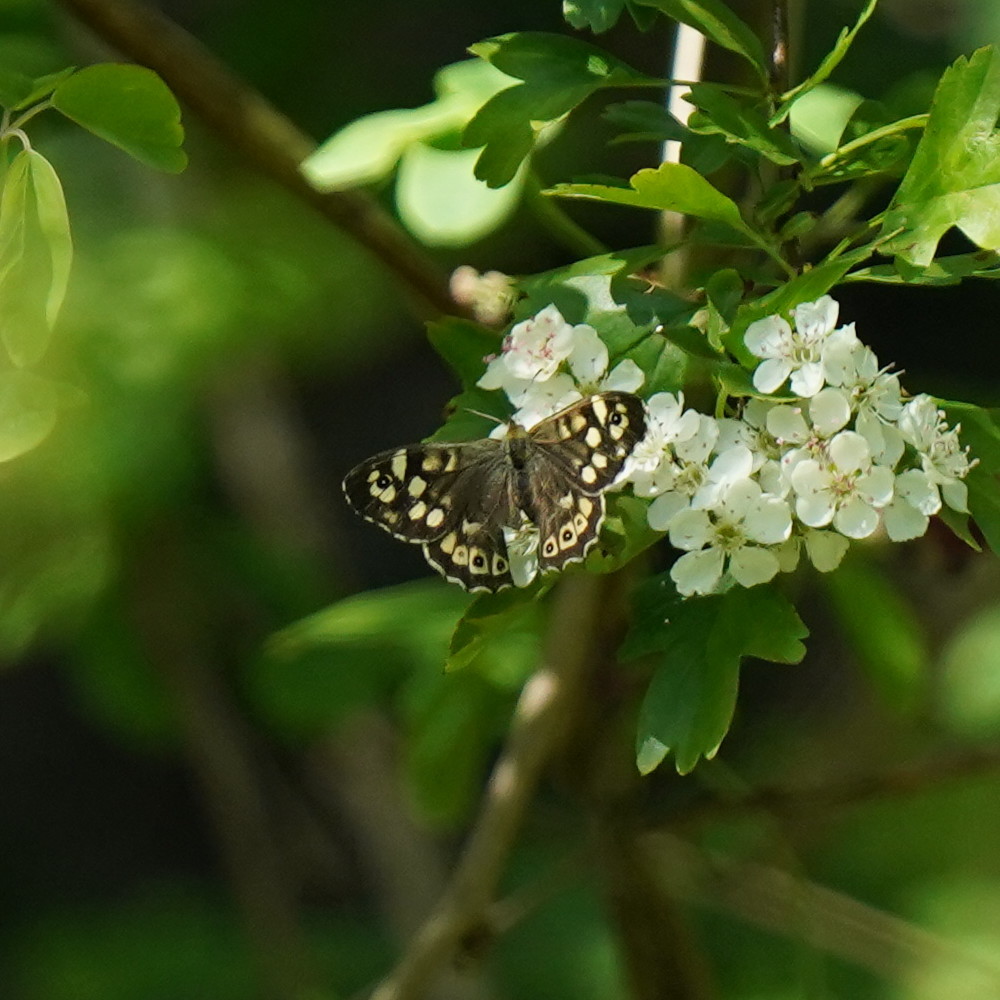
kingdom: Animalia
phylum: Arthropoda
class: Insecta
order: Lepidoptera
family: Nymphalidae
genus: Pararge
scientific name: Pararge aegeria
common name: Speckled wood
